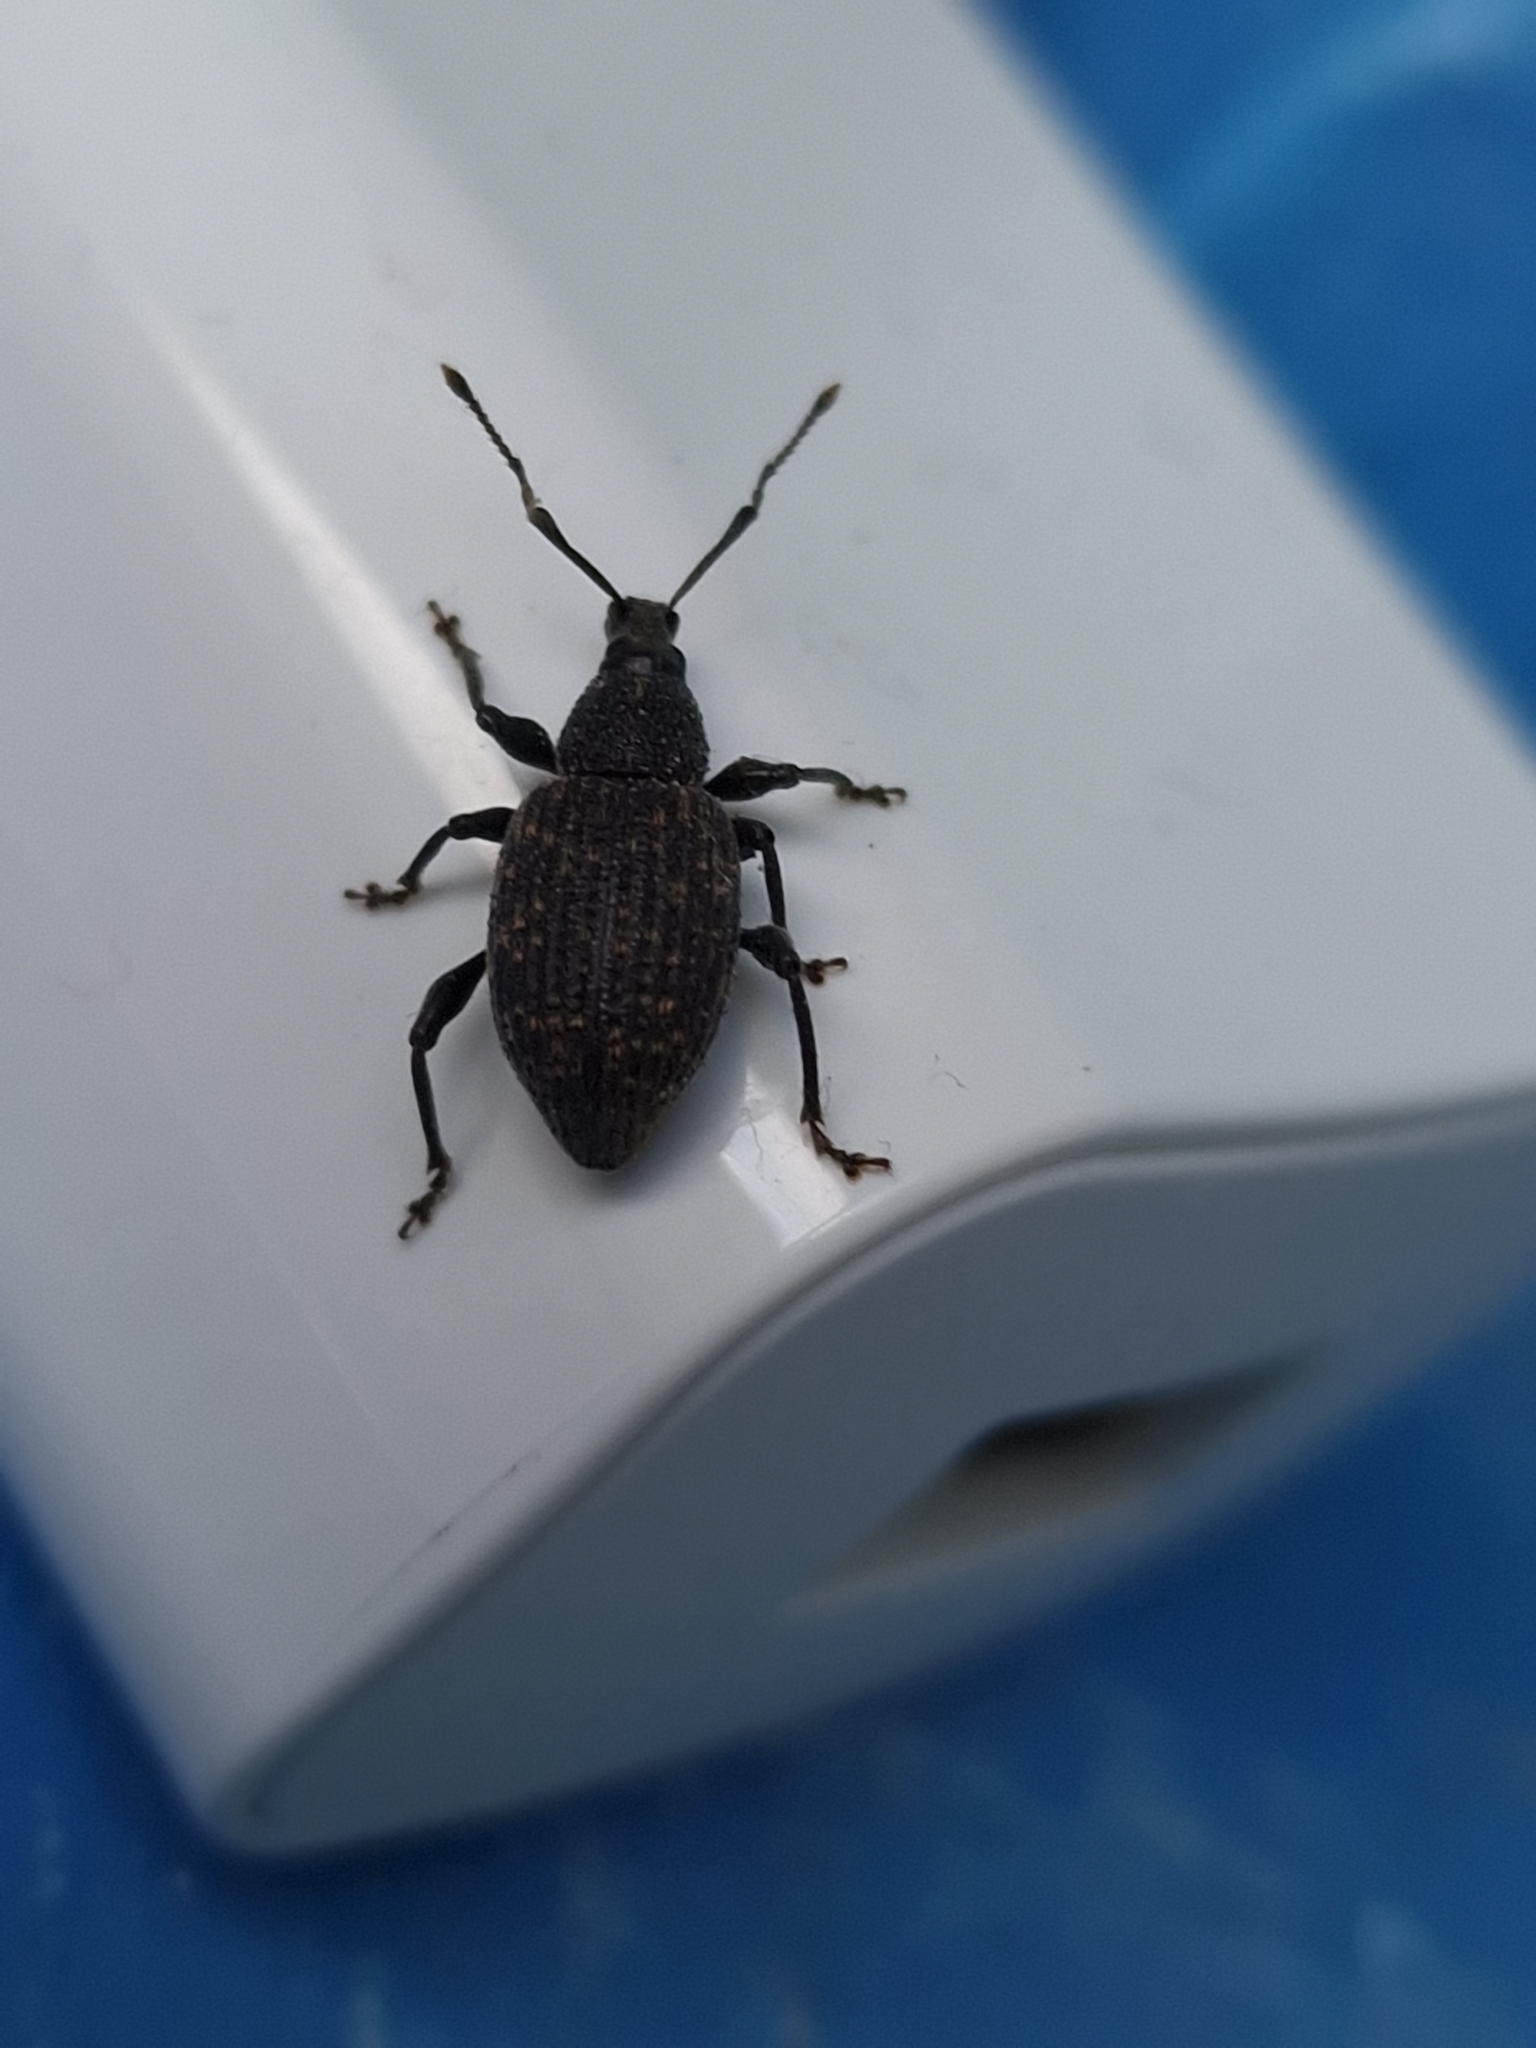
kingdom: Animalia
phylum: Arthropoda
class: Insecta
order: Coleoptera
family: Curculionidae
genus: Otiorhynchus
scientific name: Otiorhynchus sulcatus
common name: Black vine weevil
